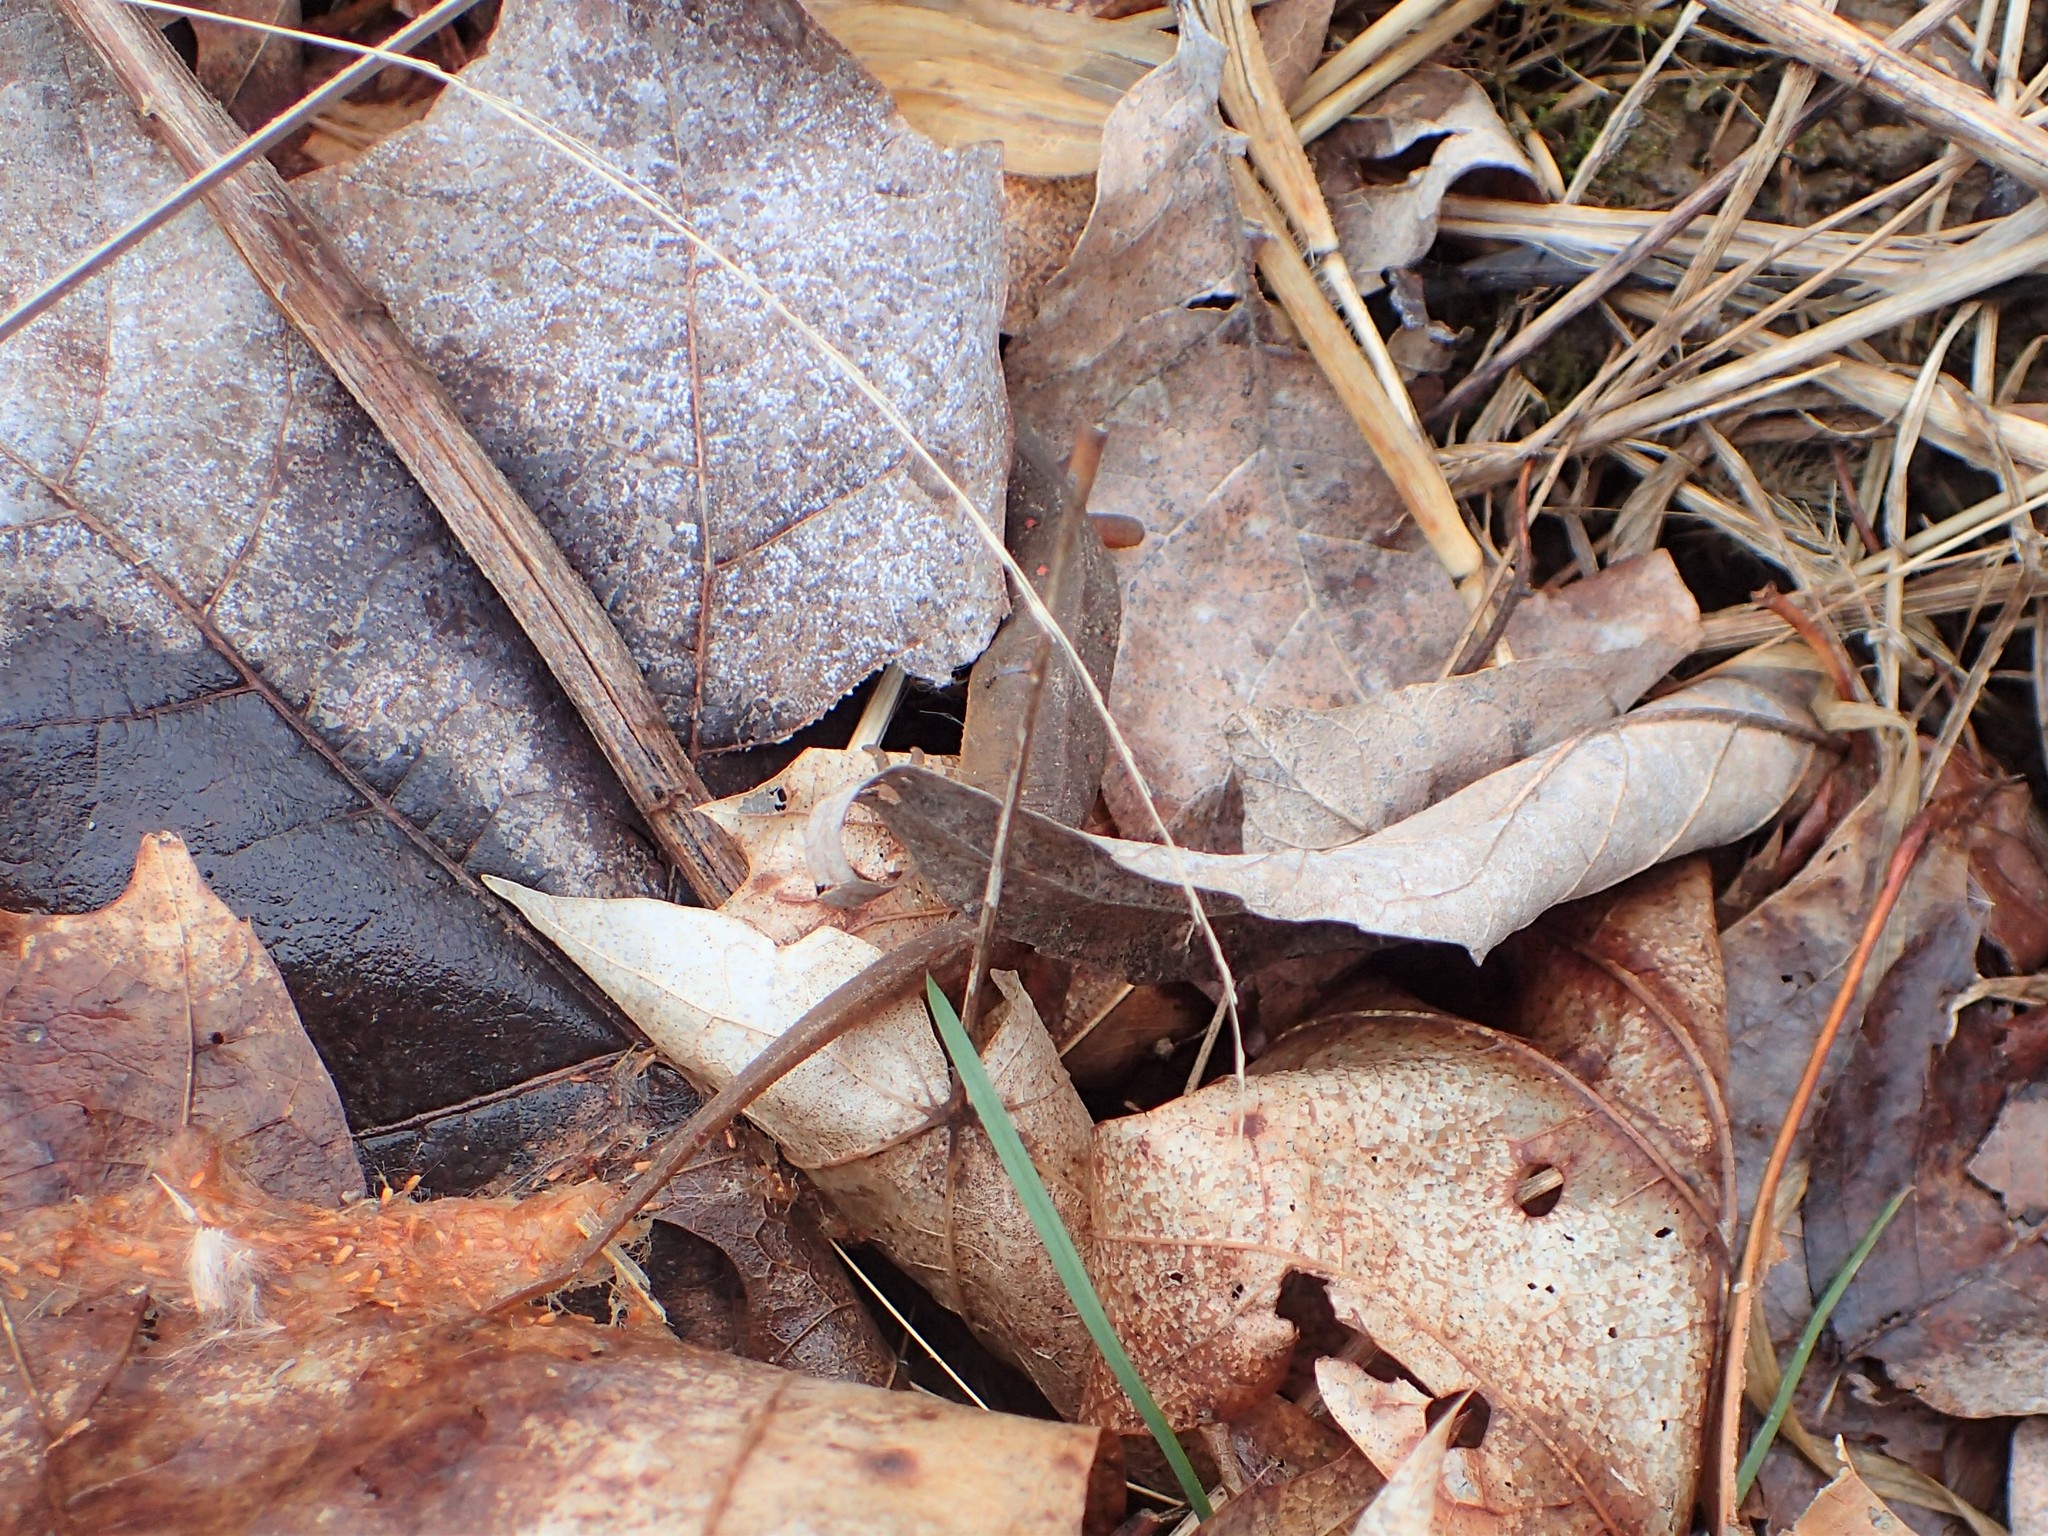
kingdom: Animalia
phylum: Chordata
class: Amphibia
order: Caudata
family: Salamandridae
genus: Notophthalmus
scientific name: Notophthalmus viridescens
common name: Eastern newt
